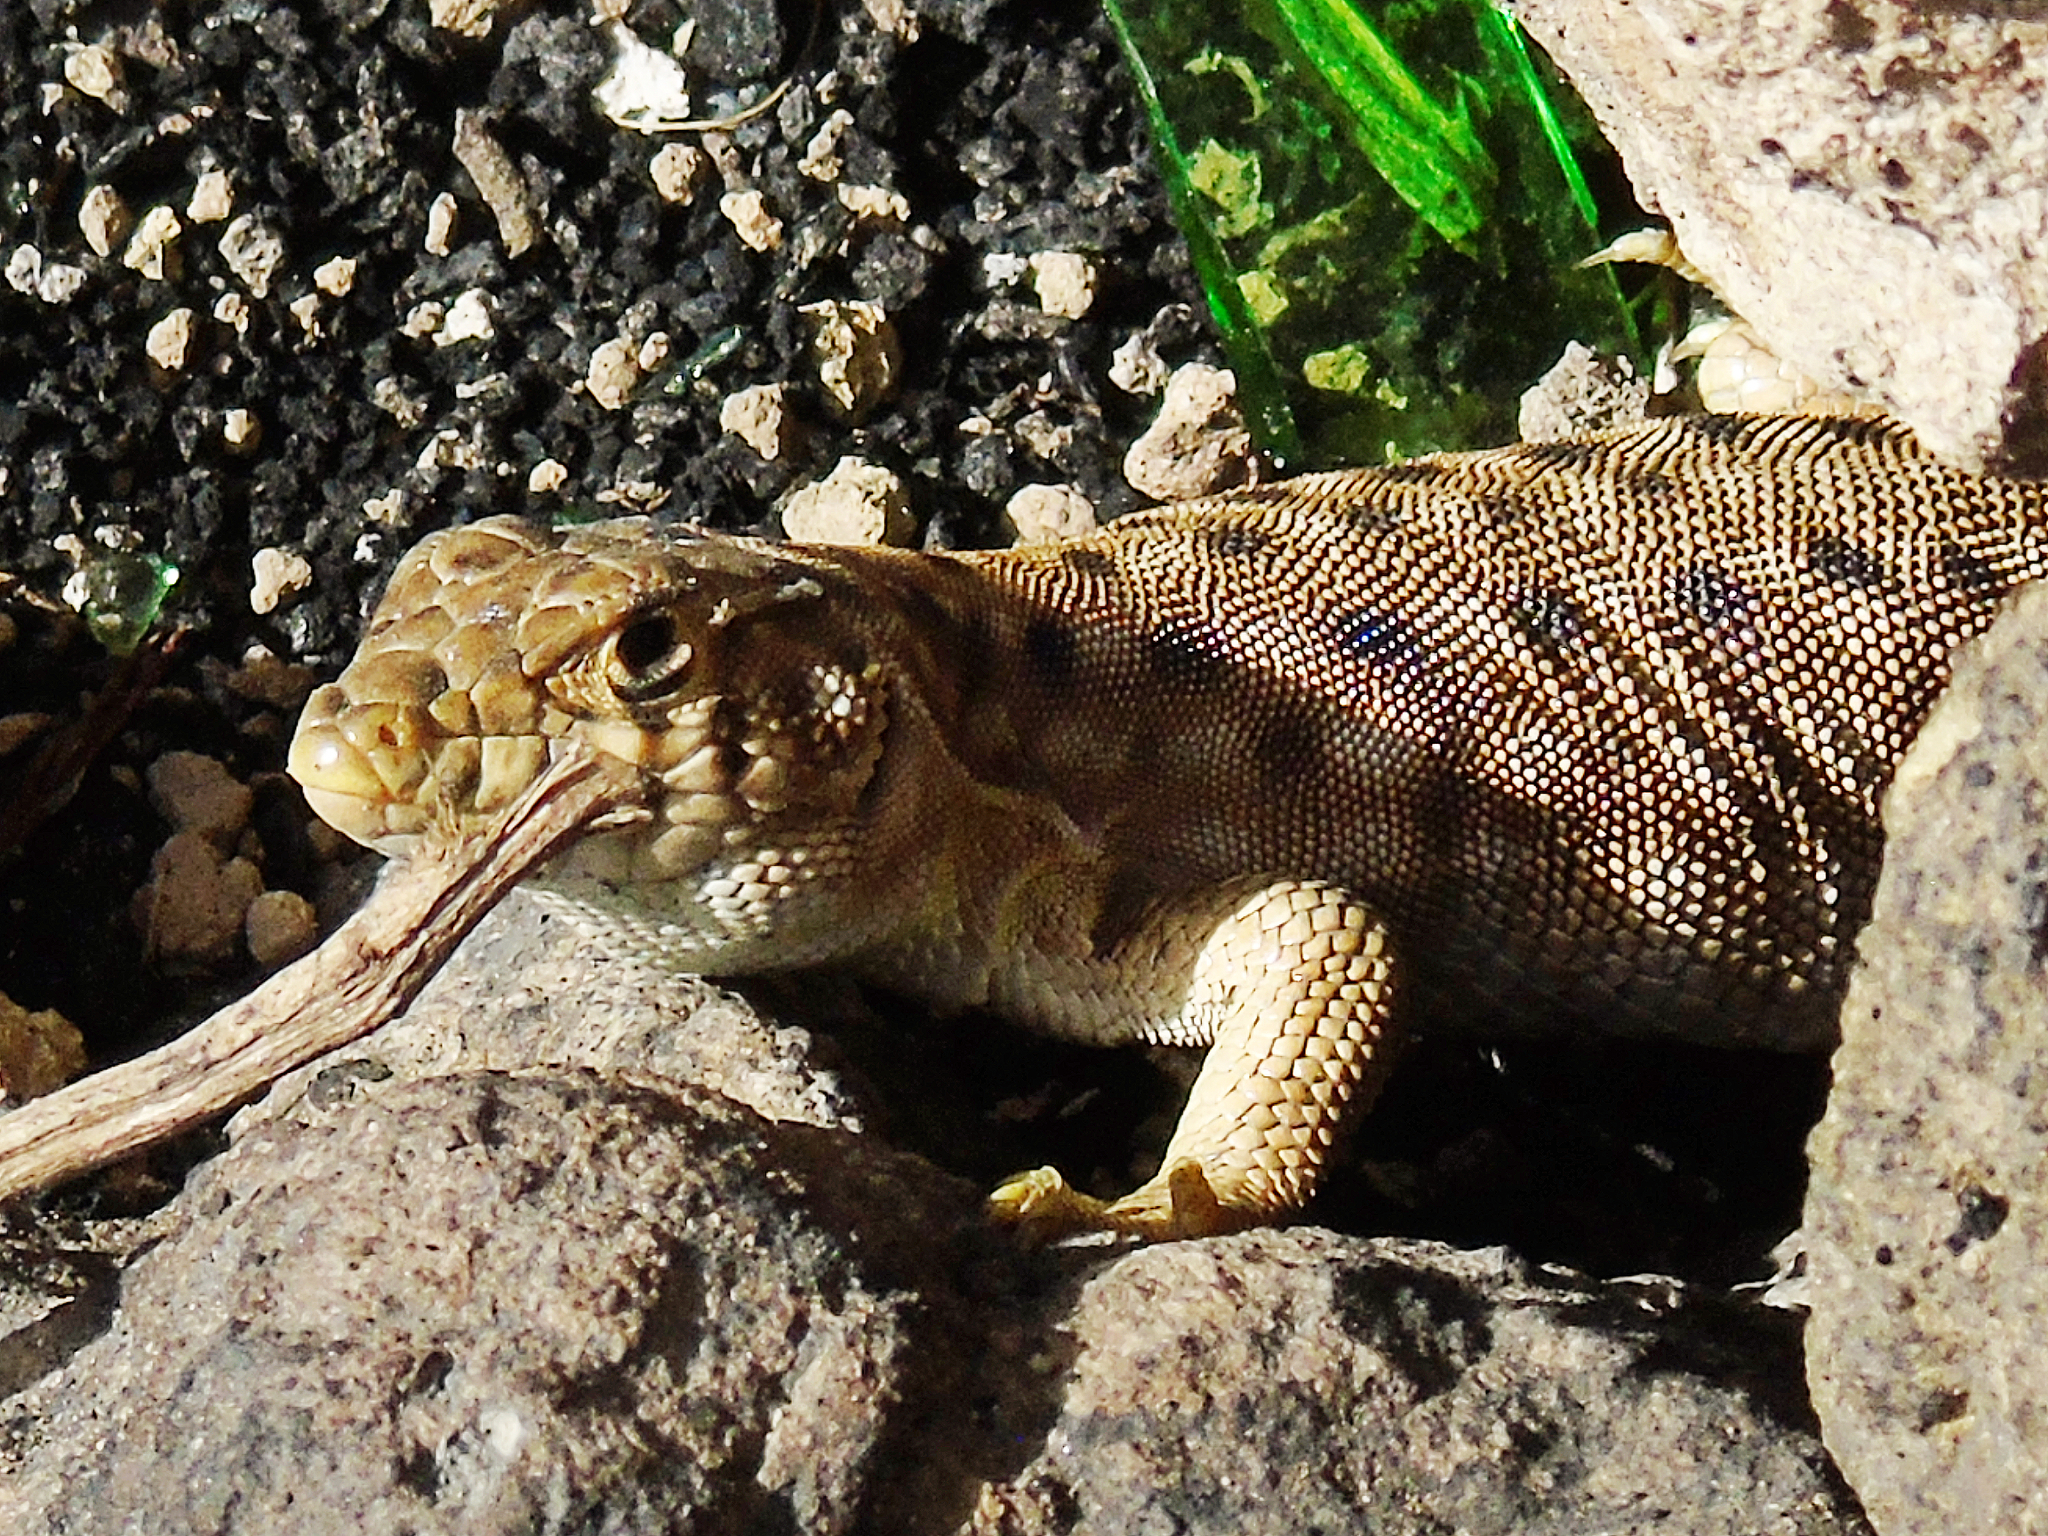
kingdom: Animalia
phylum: Chordata
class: Squamata
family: Lacertidae
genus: Acanthodactylus
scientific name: Acanthodactylus harranensis
